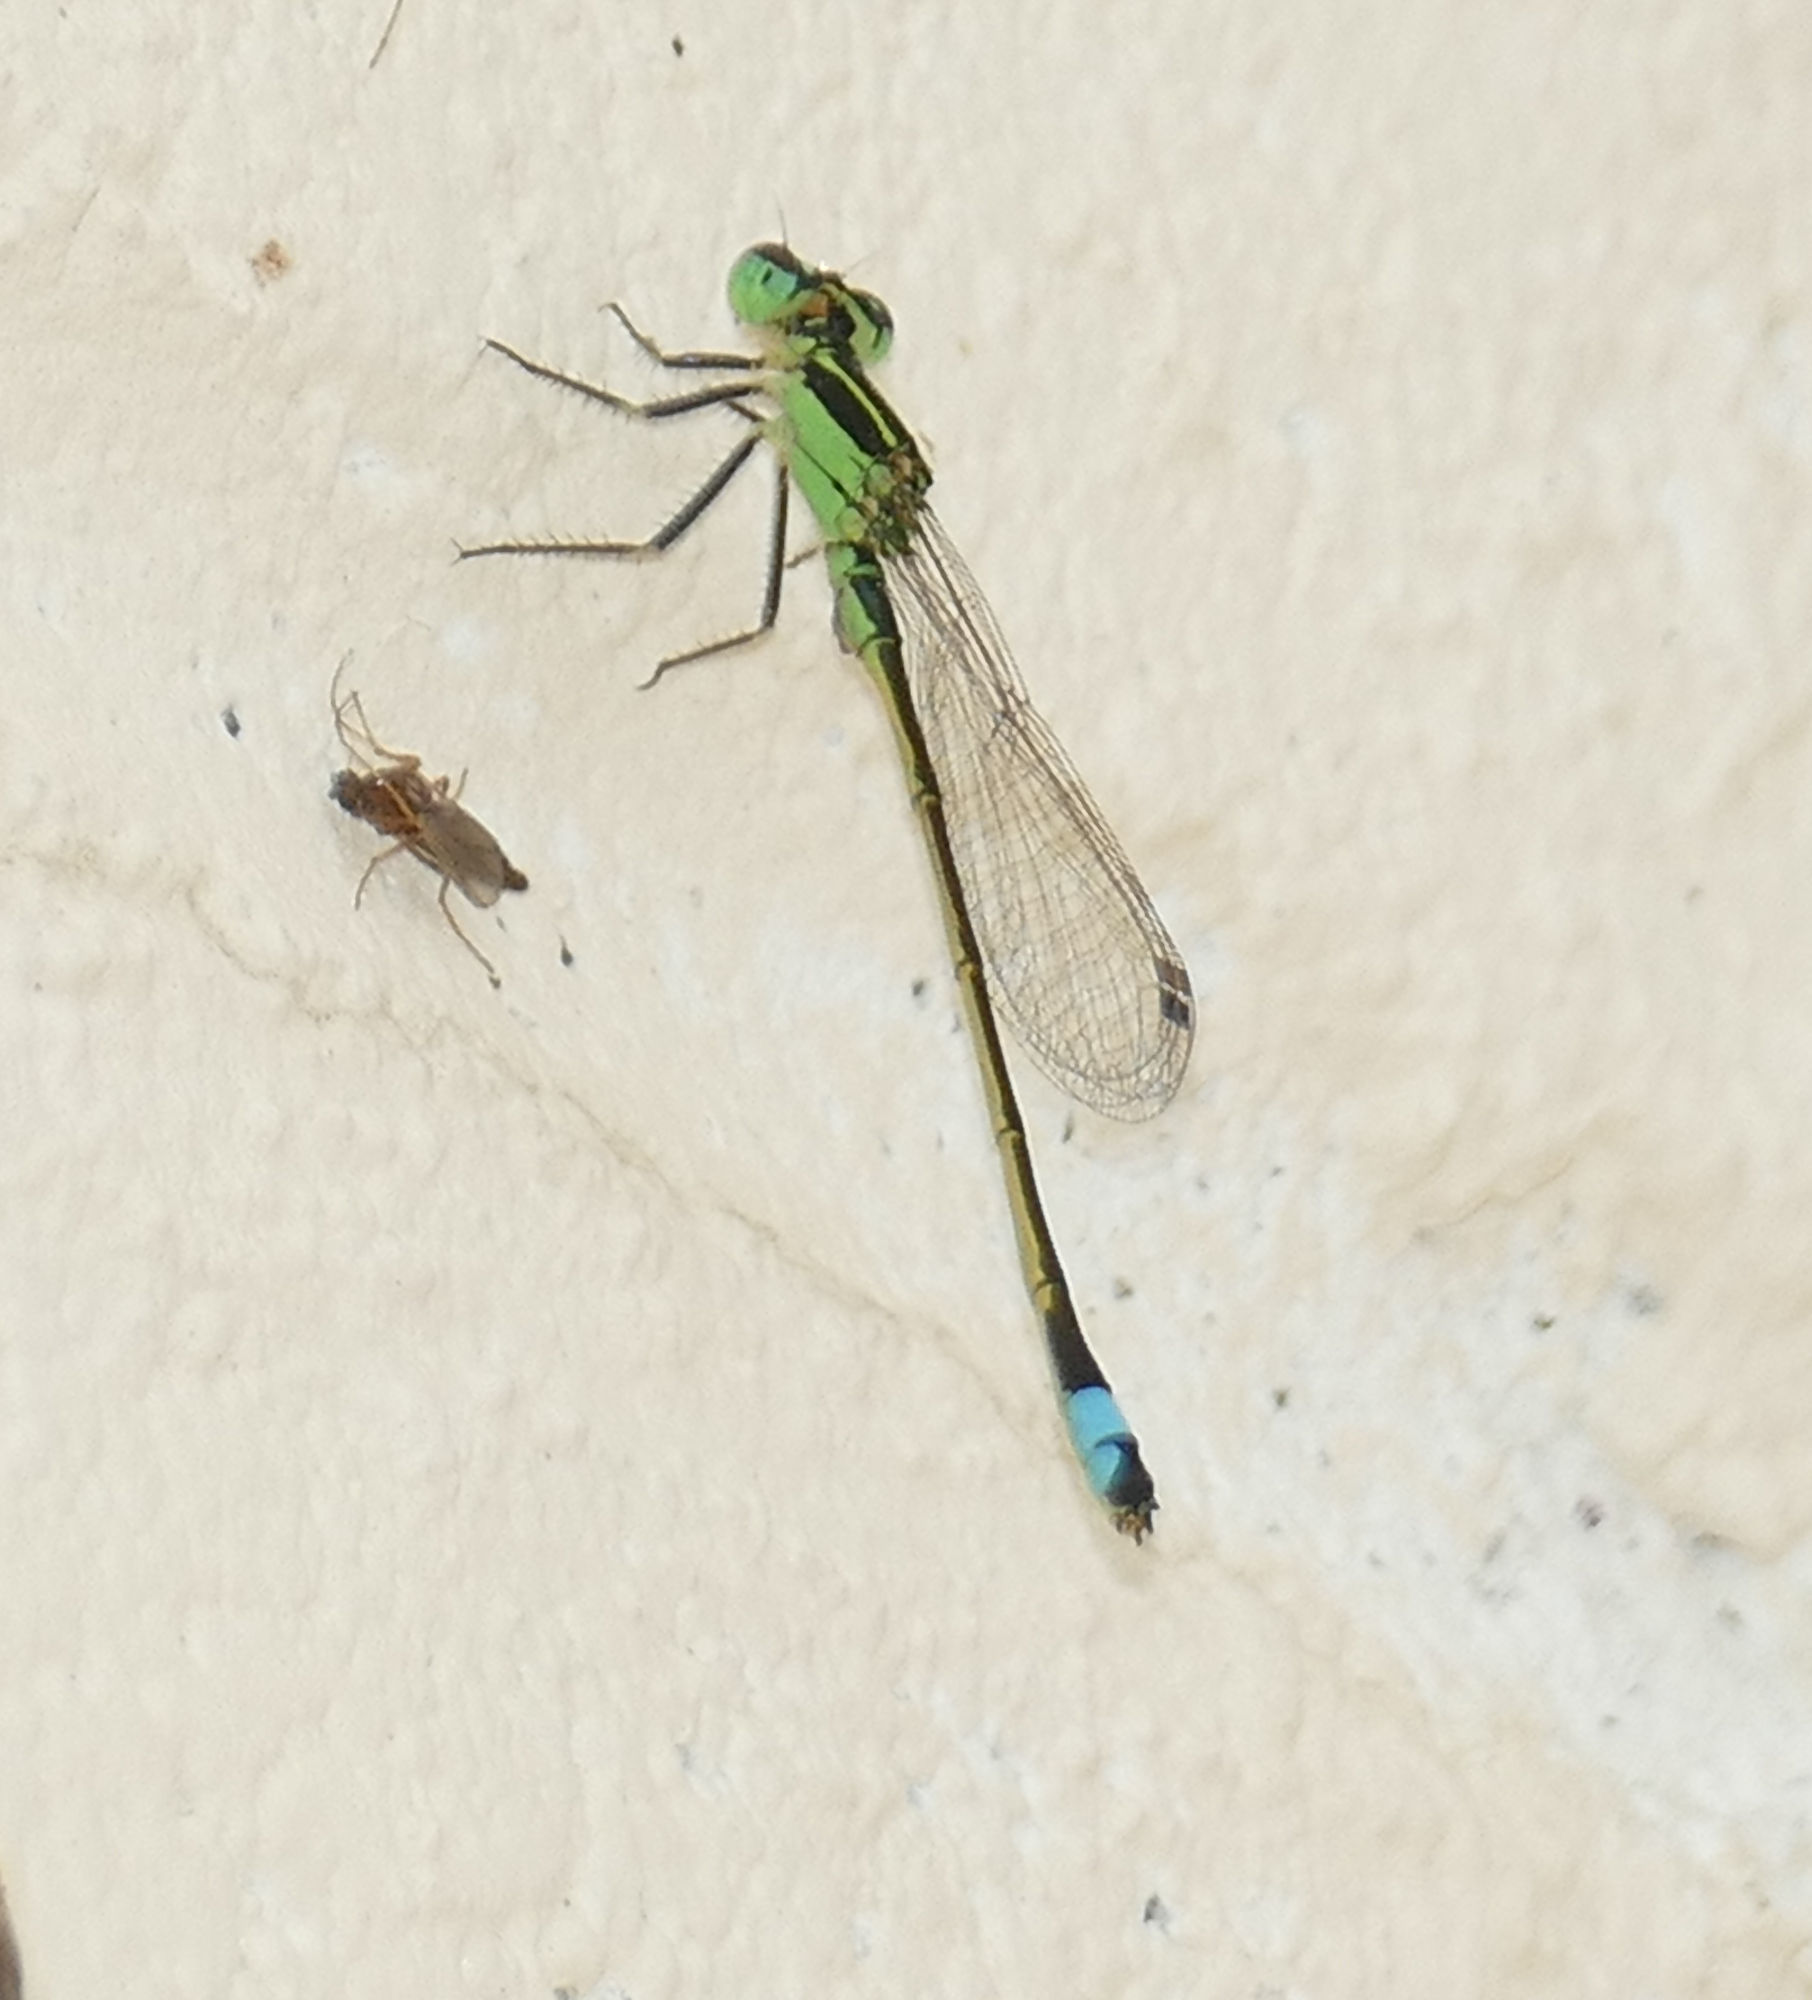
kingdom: Animalia
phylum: Arthropoda
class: Insecta
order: Odonata
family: Coenagrionidae
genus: Ischnura
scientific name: Ischnura ramburii
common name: Rambur's forktail
